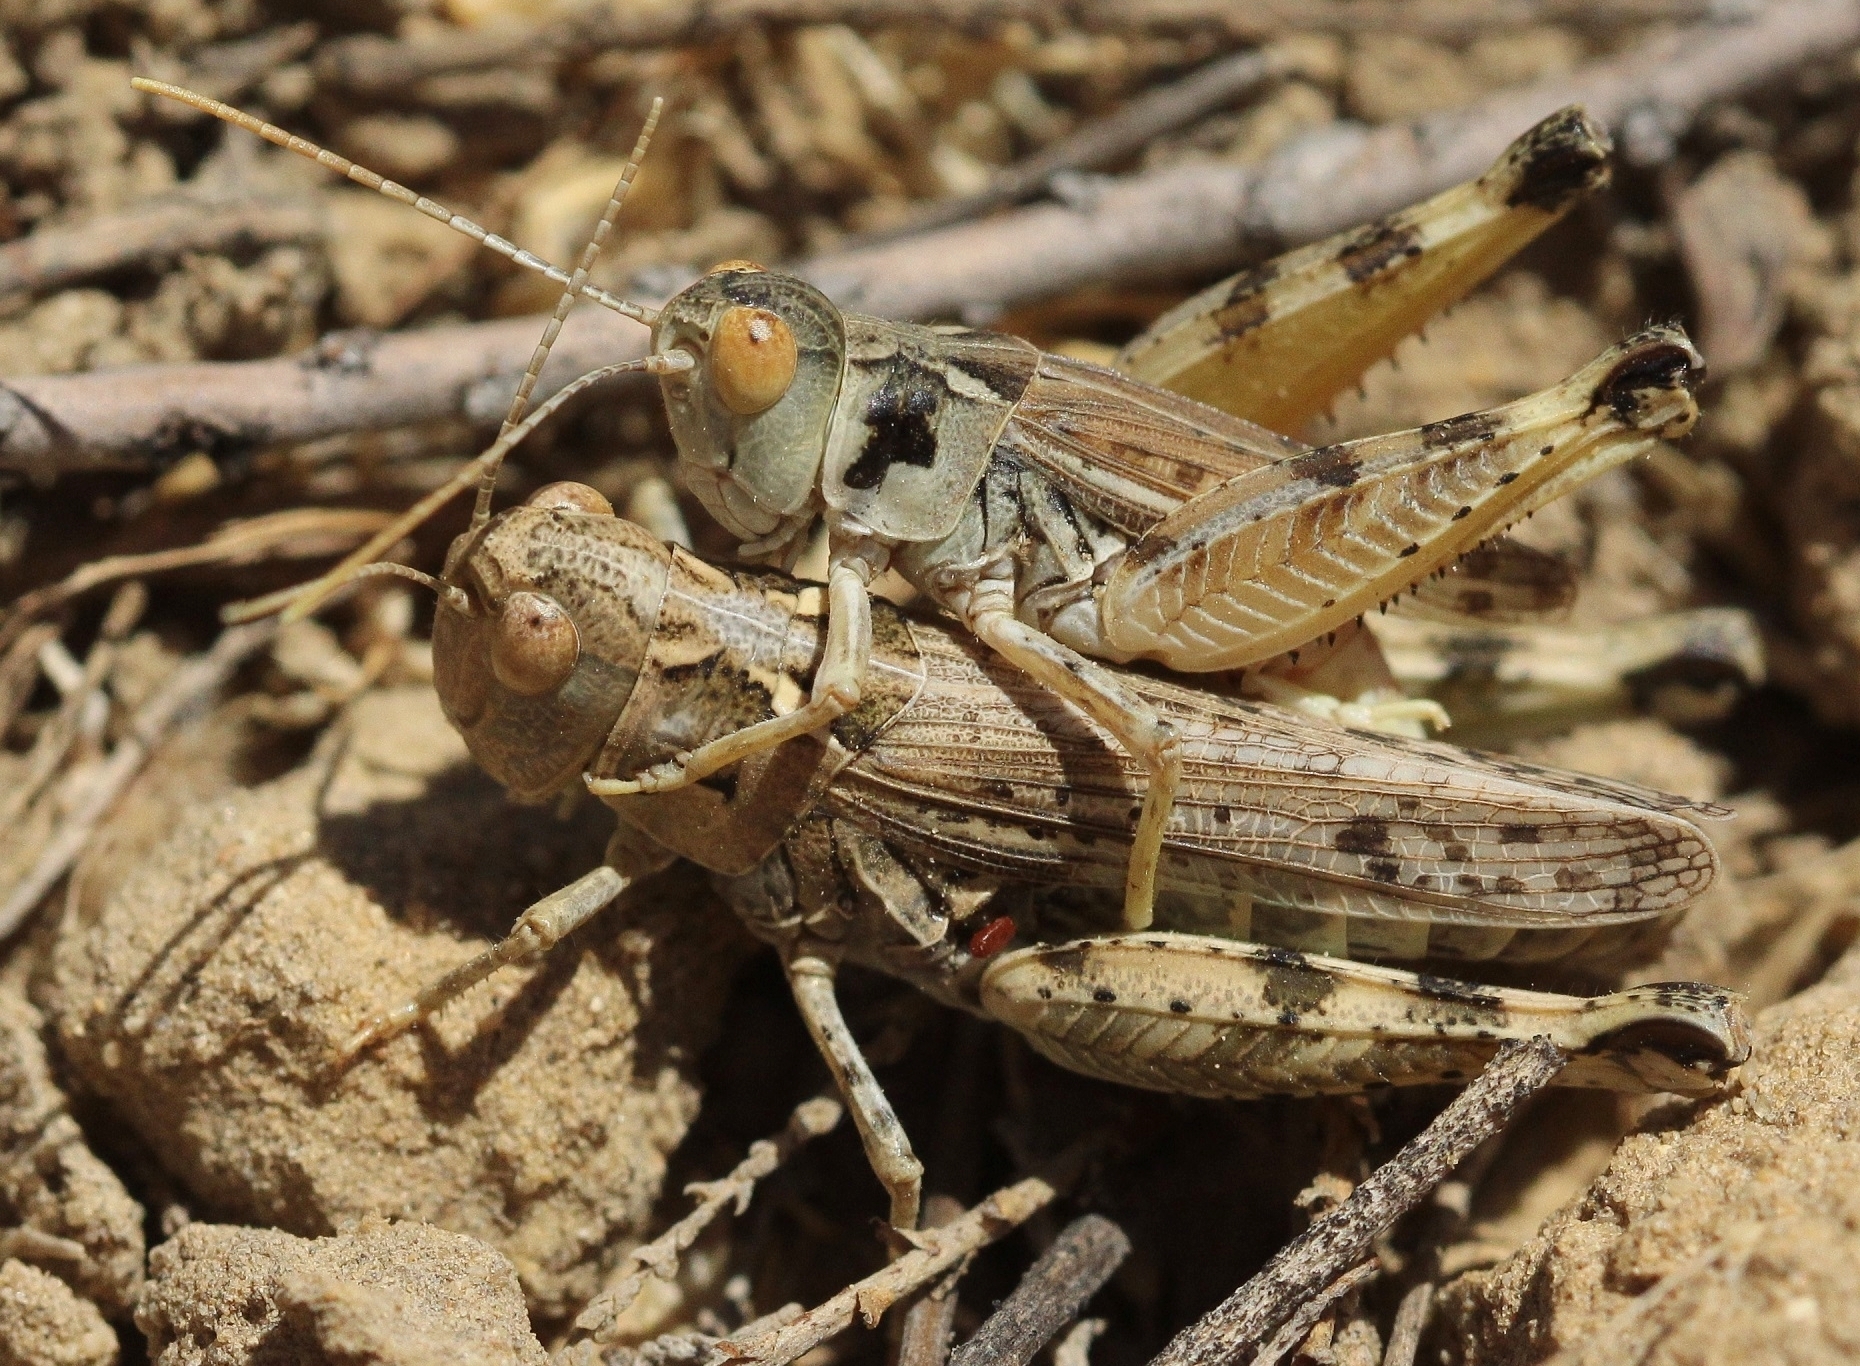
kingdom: Animalia
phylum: Arthropoda
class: Insecta
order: Orthoptera
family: Acrididae
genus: Dociostaurus
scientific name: Dociostaurus kraussi
